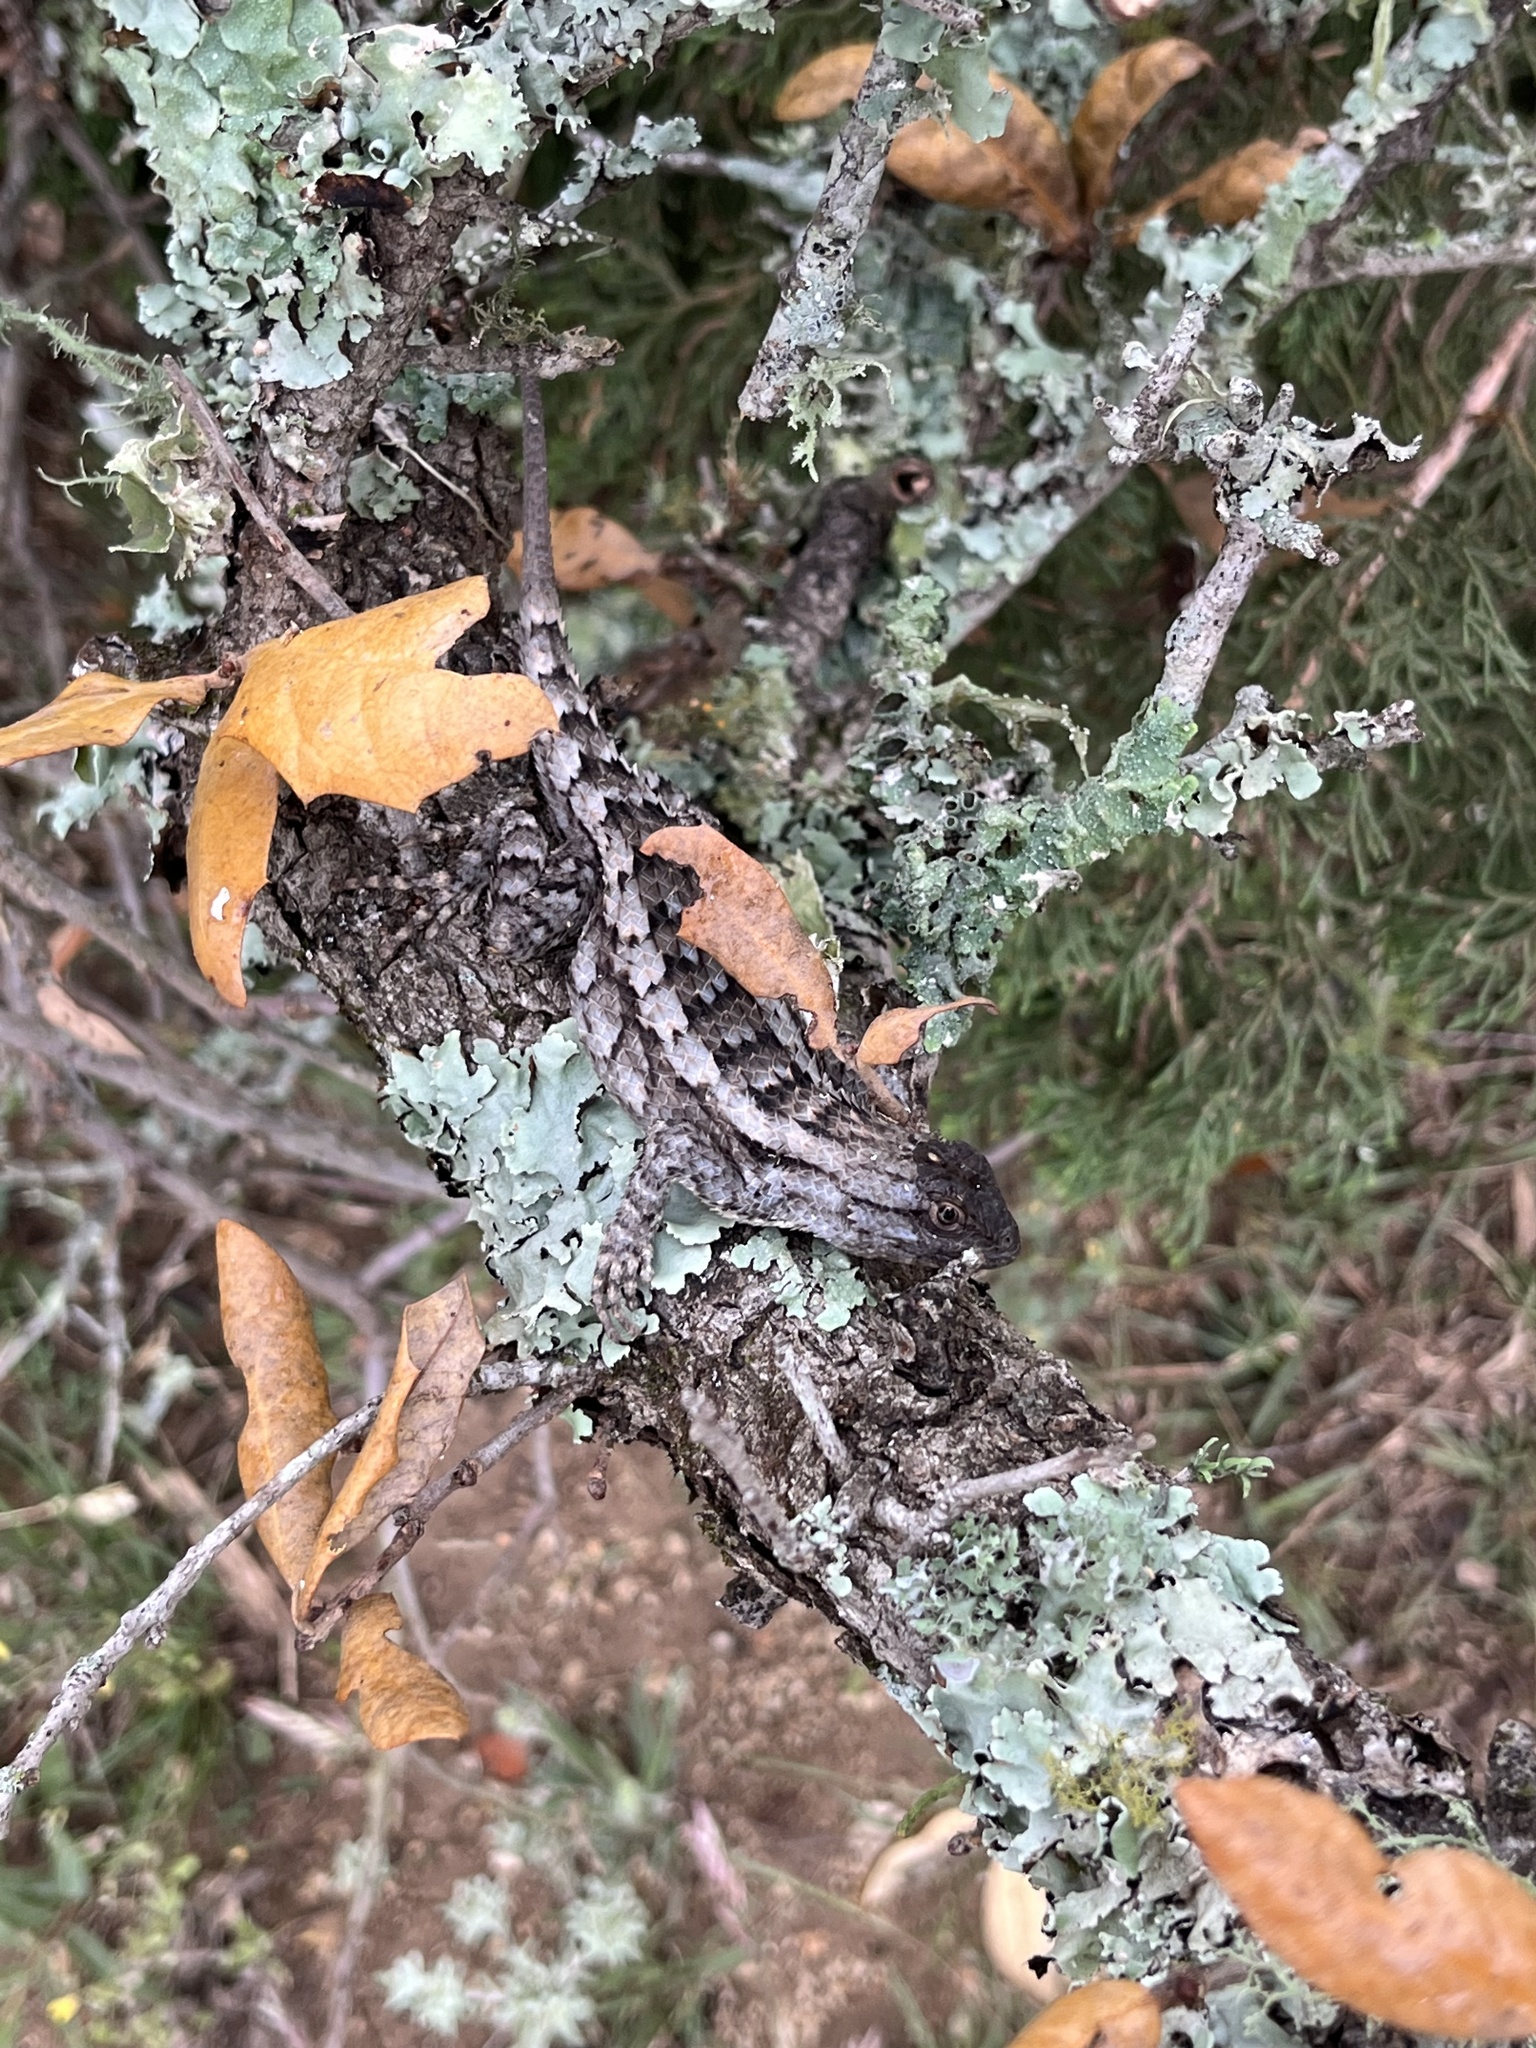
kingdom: Animalia
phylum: Chordata
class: Squamata
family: Phrynosomatidae
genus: Sceloporus
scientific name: Sceloporus olivaceus
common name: Texas spiny lizard
